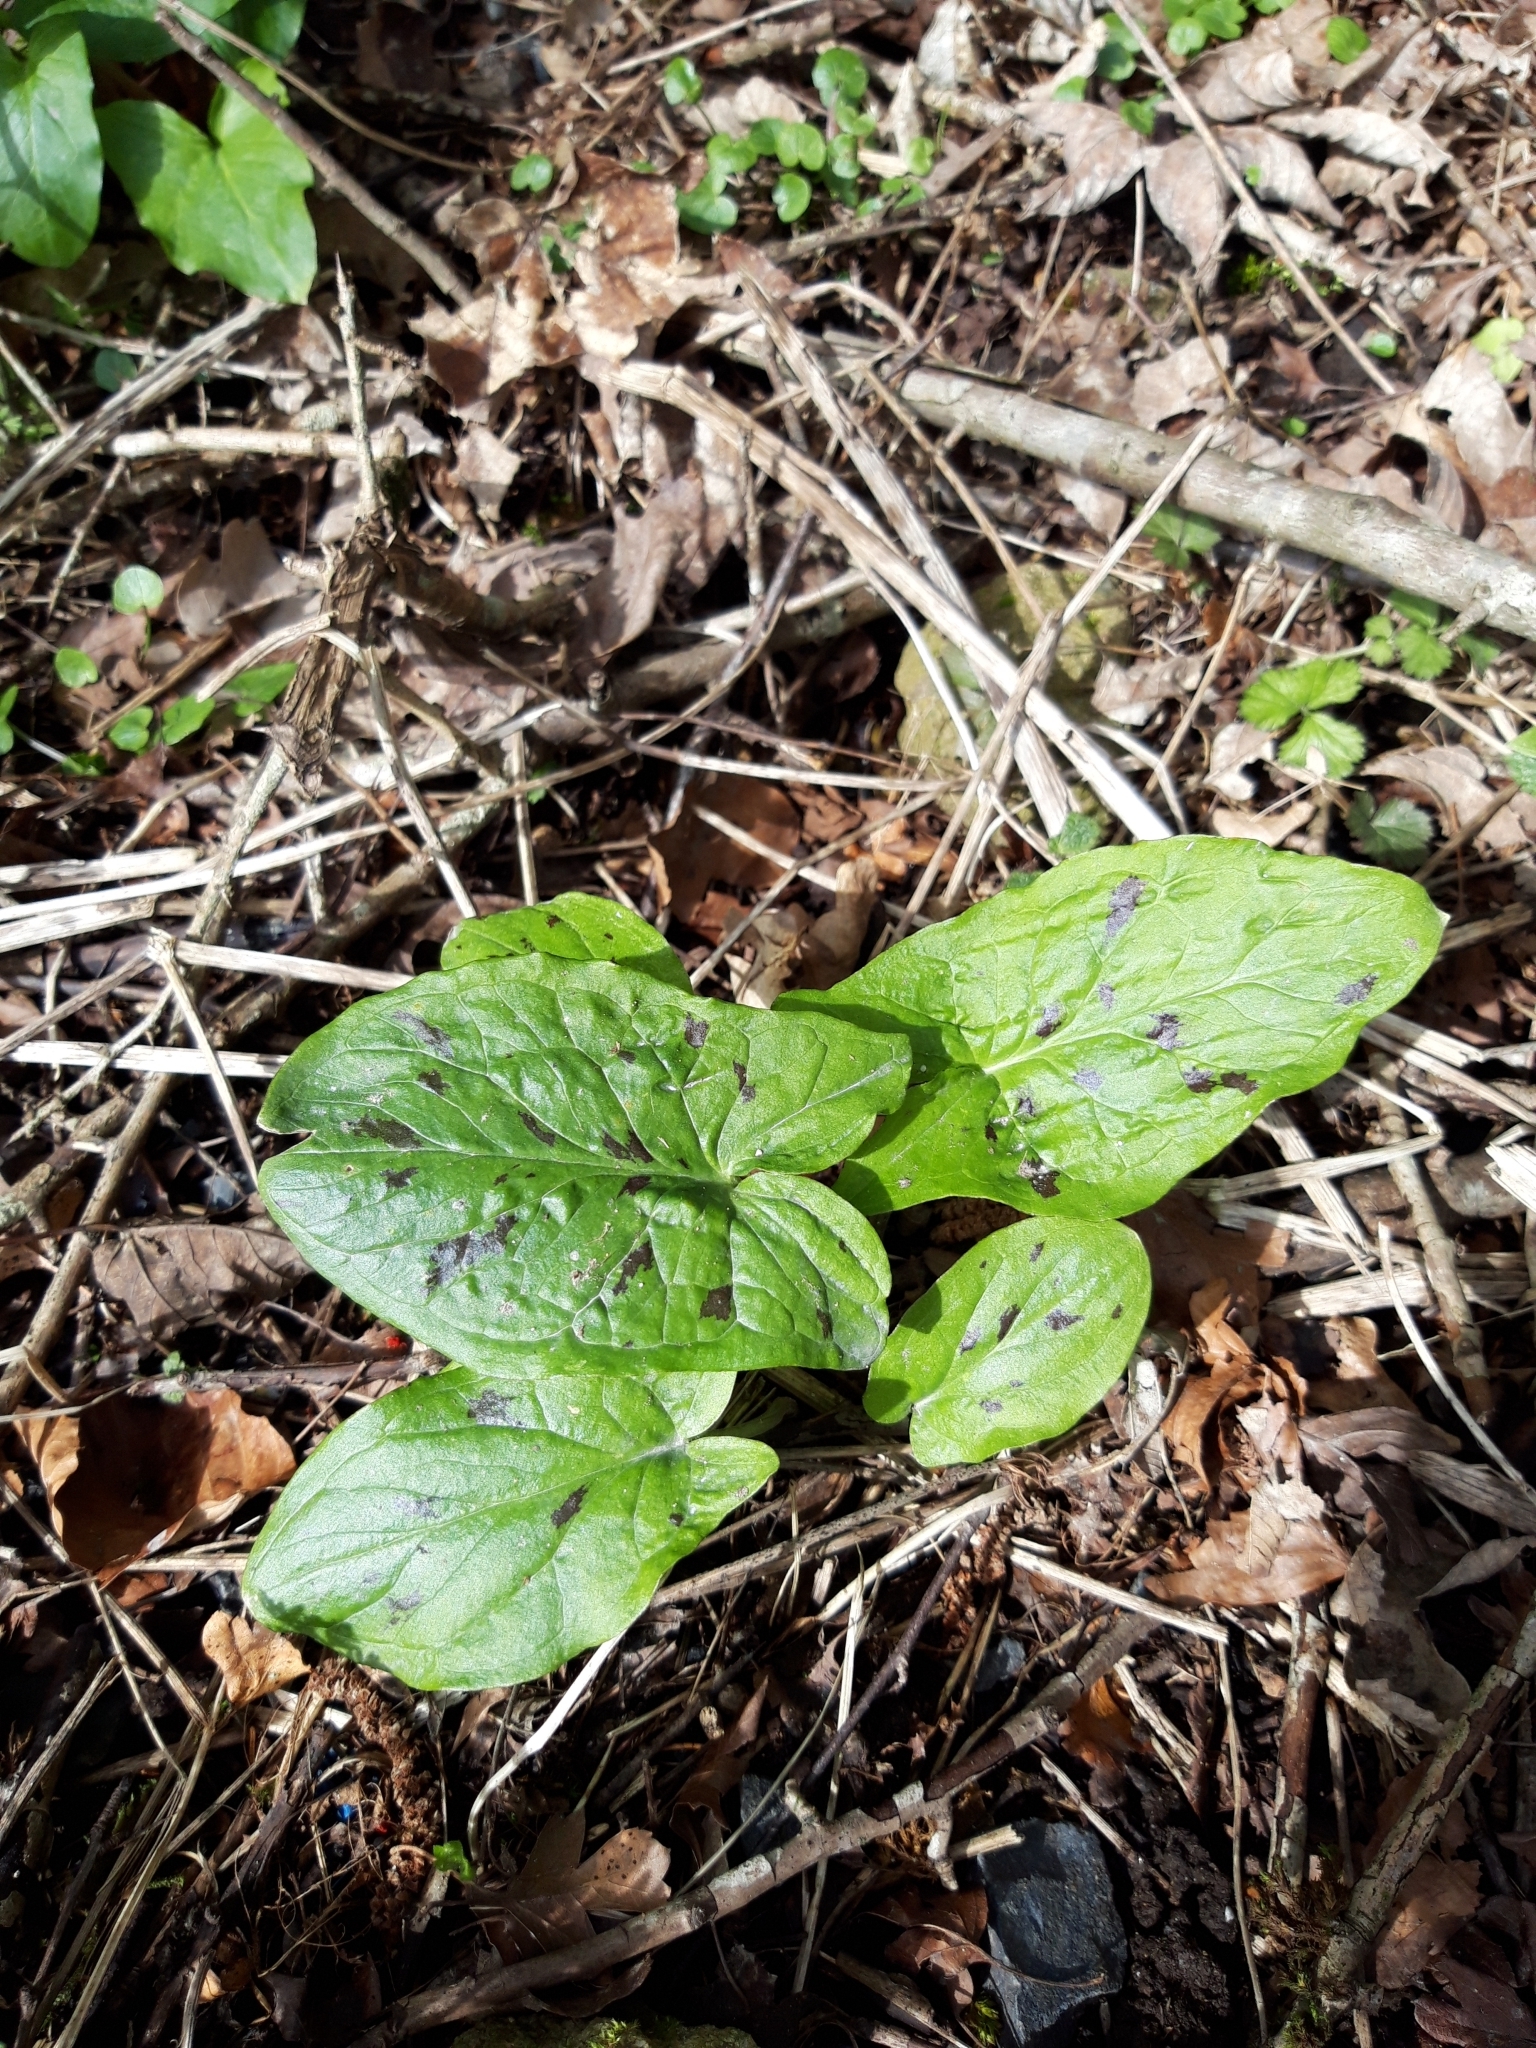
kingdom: Plantae
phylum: Tracheophyta
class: Liliopsida
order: Alismatales
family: Araceae
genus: Arum
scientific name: Arum maculatum
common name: Lords-and-ladies
